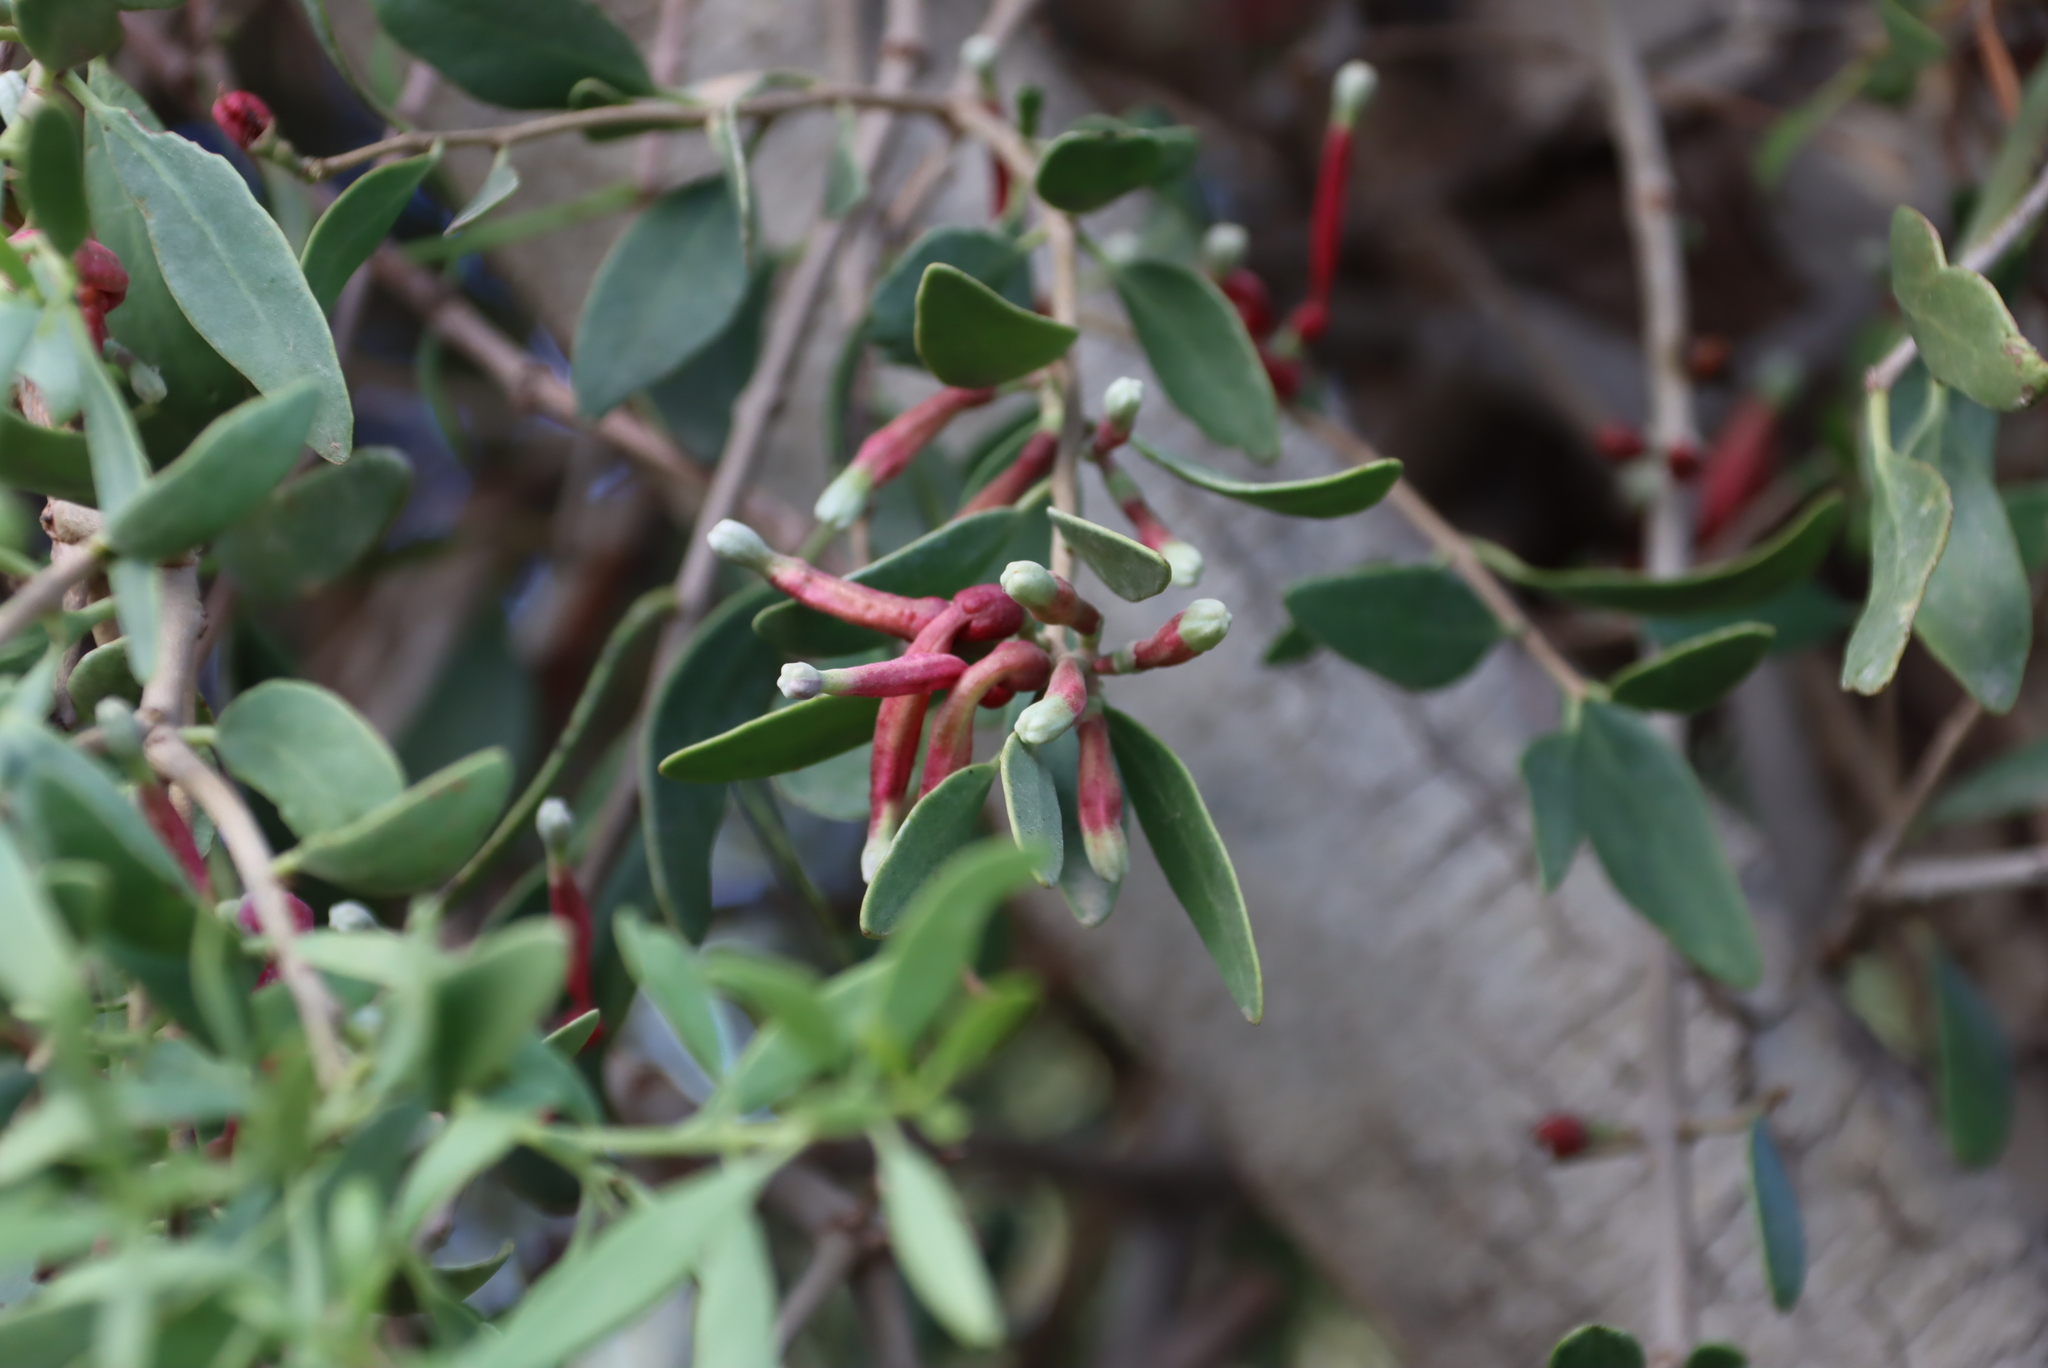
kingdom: Plantae
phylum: Tracheophyta
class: Magnoliopsida
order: Santalales
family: Loranthaceae
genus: Tapinanthus
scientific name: Tapinanthus oleifolius
